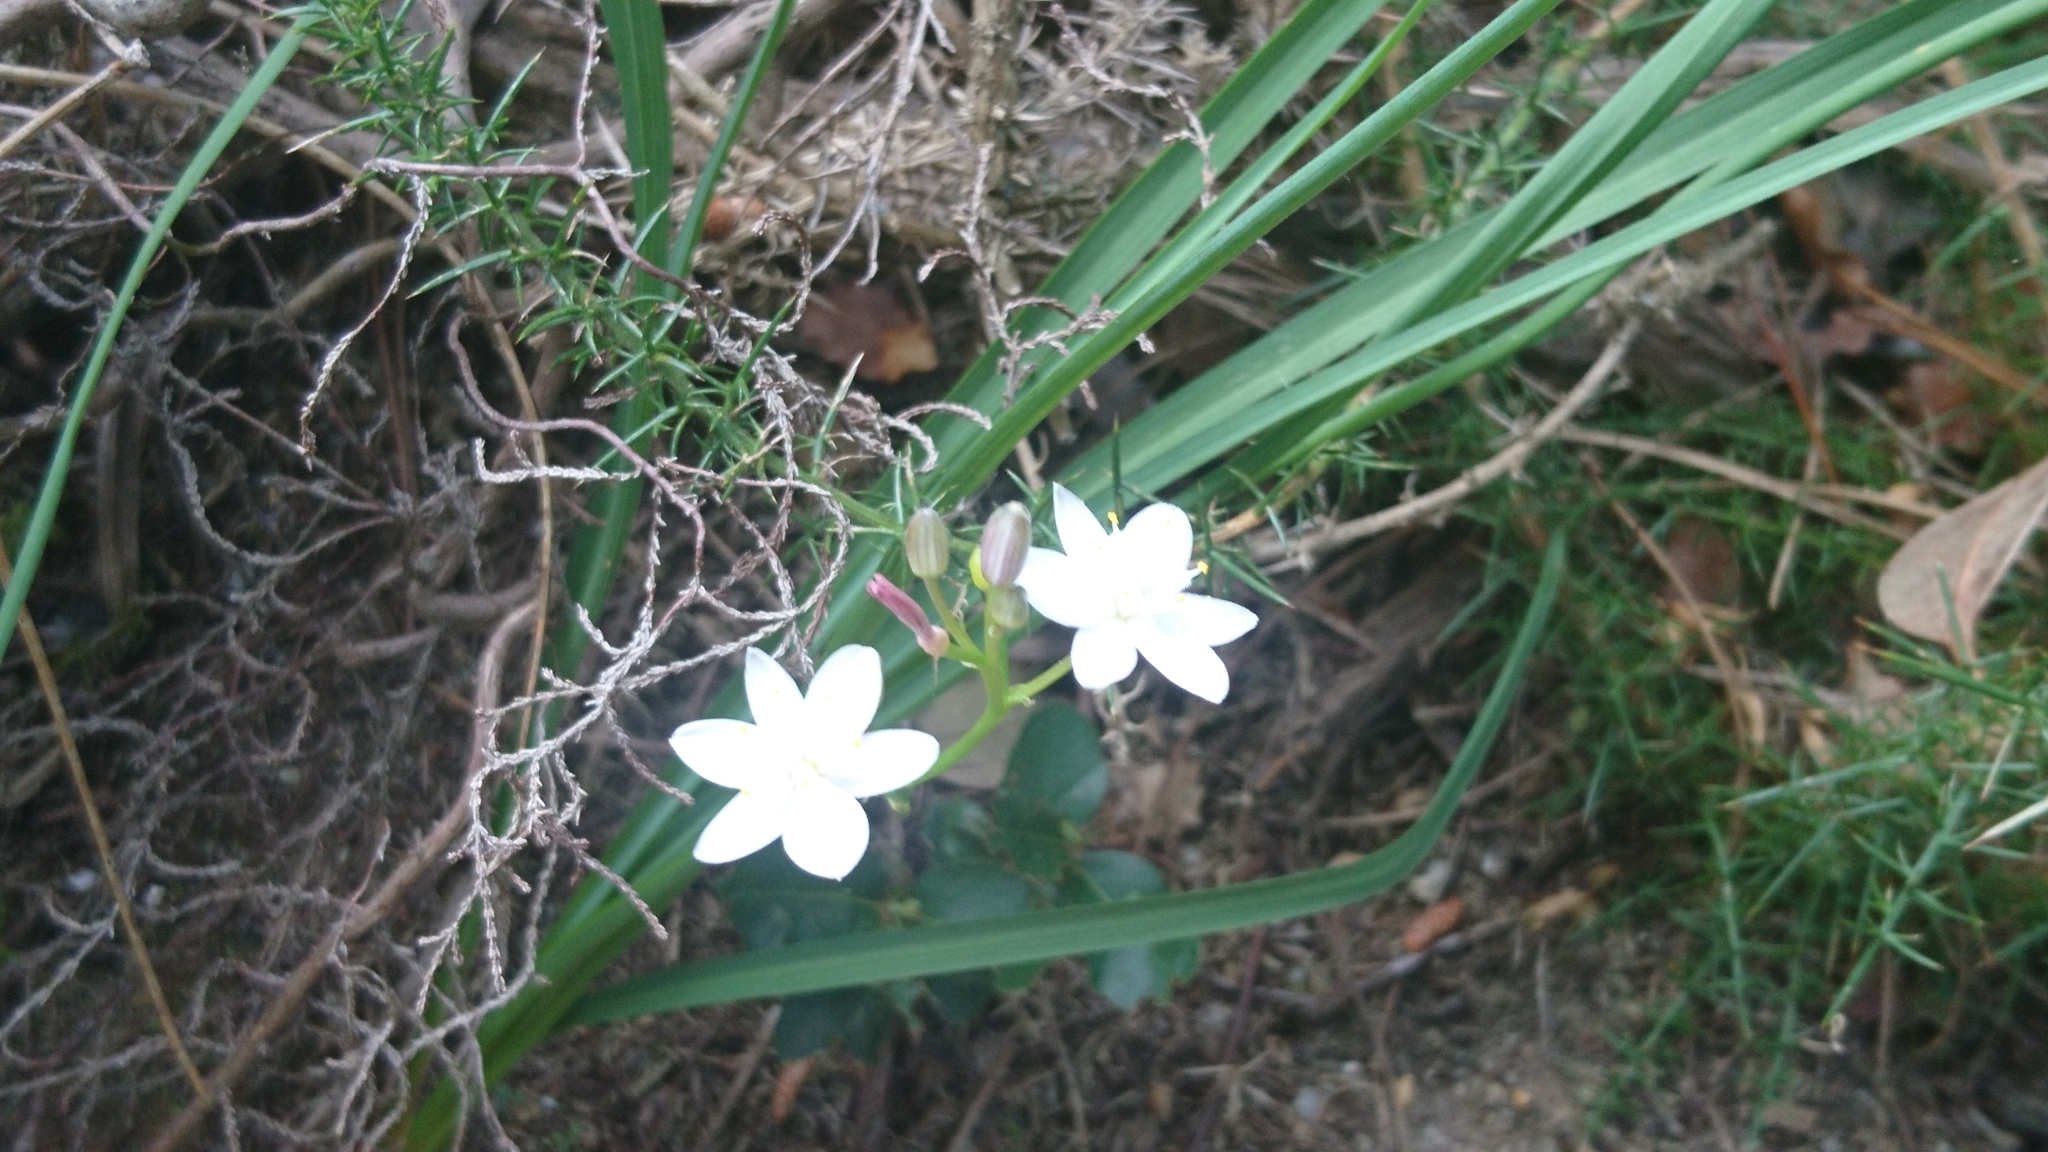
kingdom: Plantae
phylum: Tracheophyta
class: Liliopsida
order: Asparagales
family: Asphodelaceae
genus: Simethis
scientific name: Simethis mattiazzii
